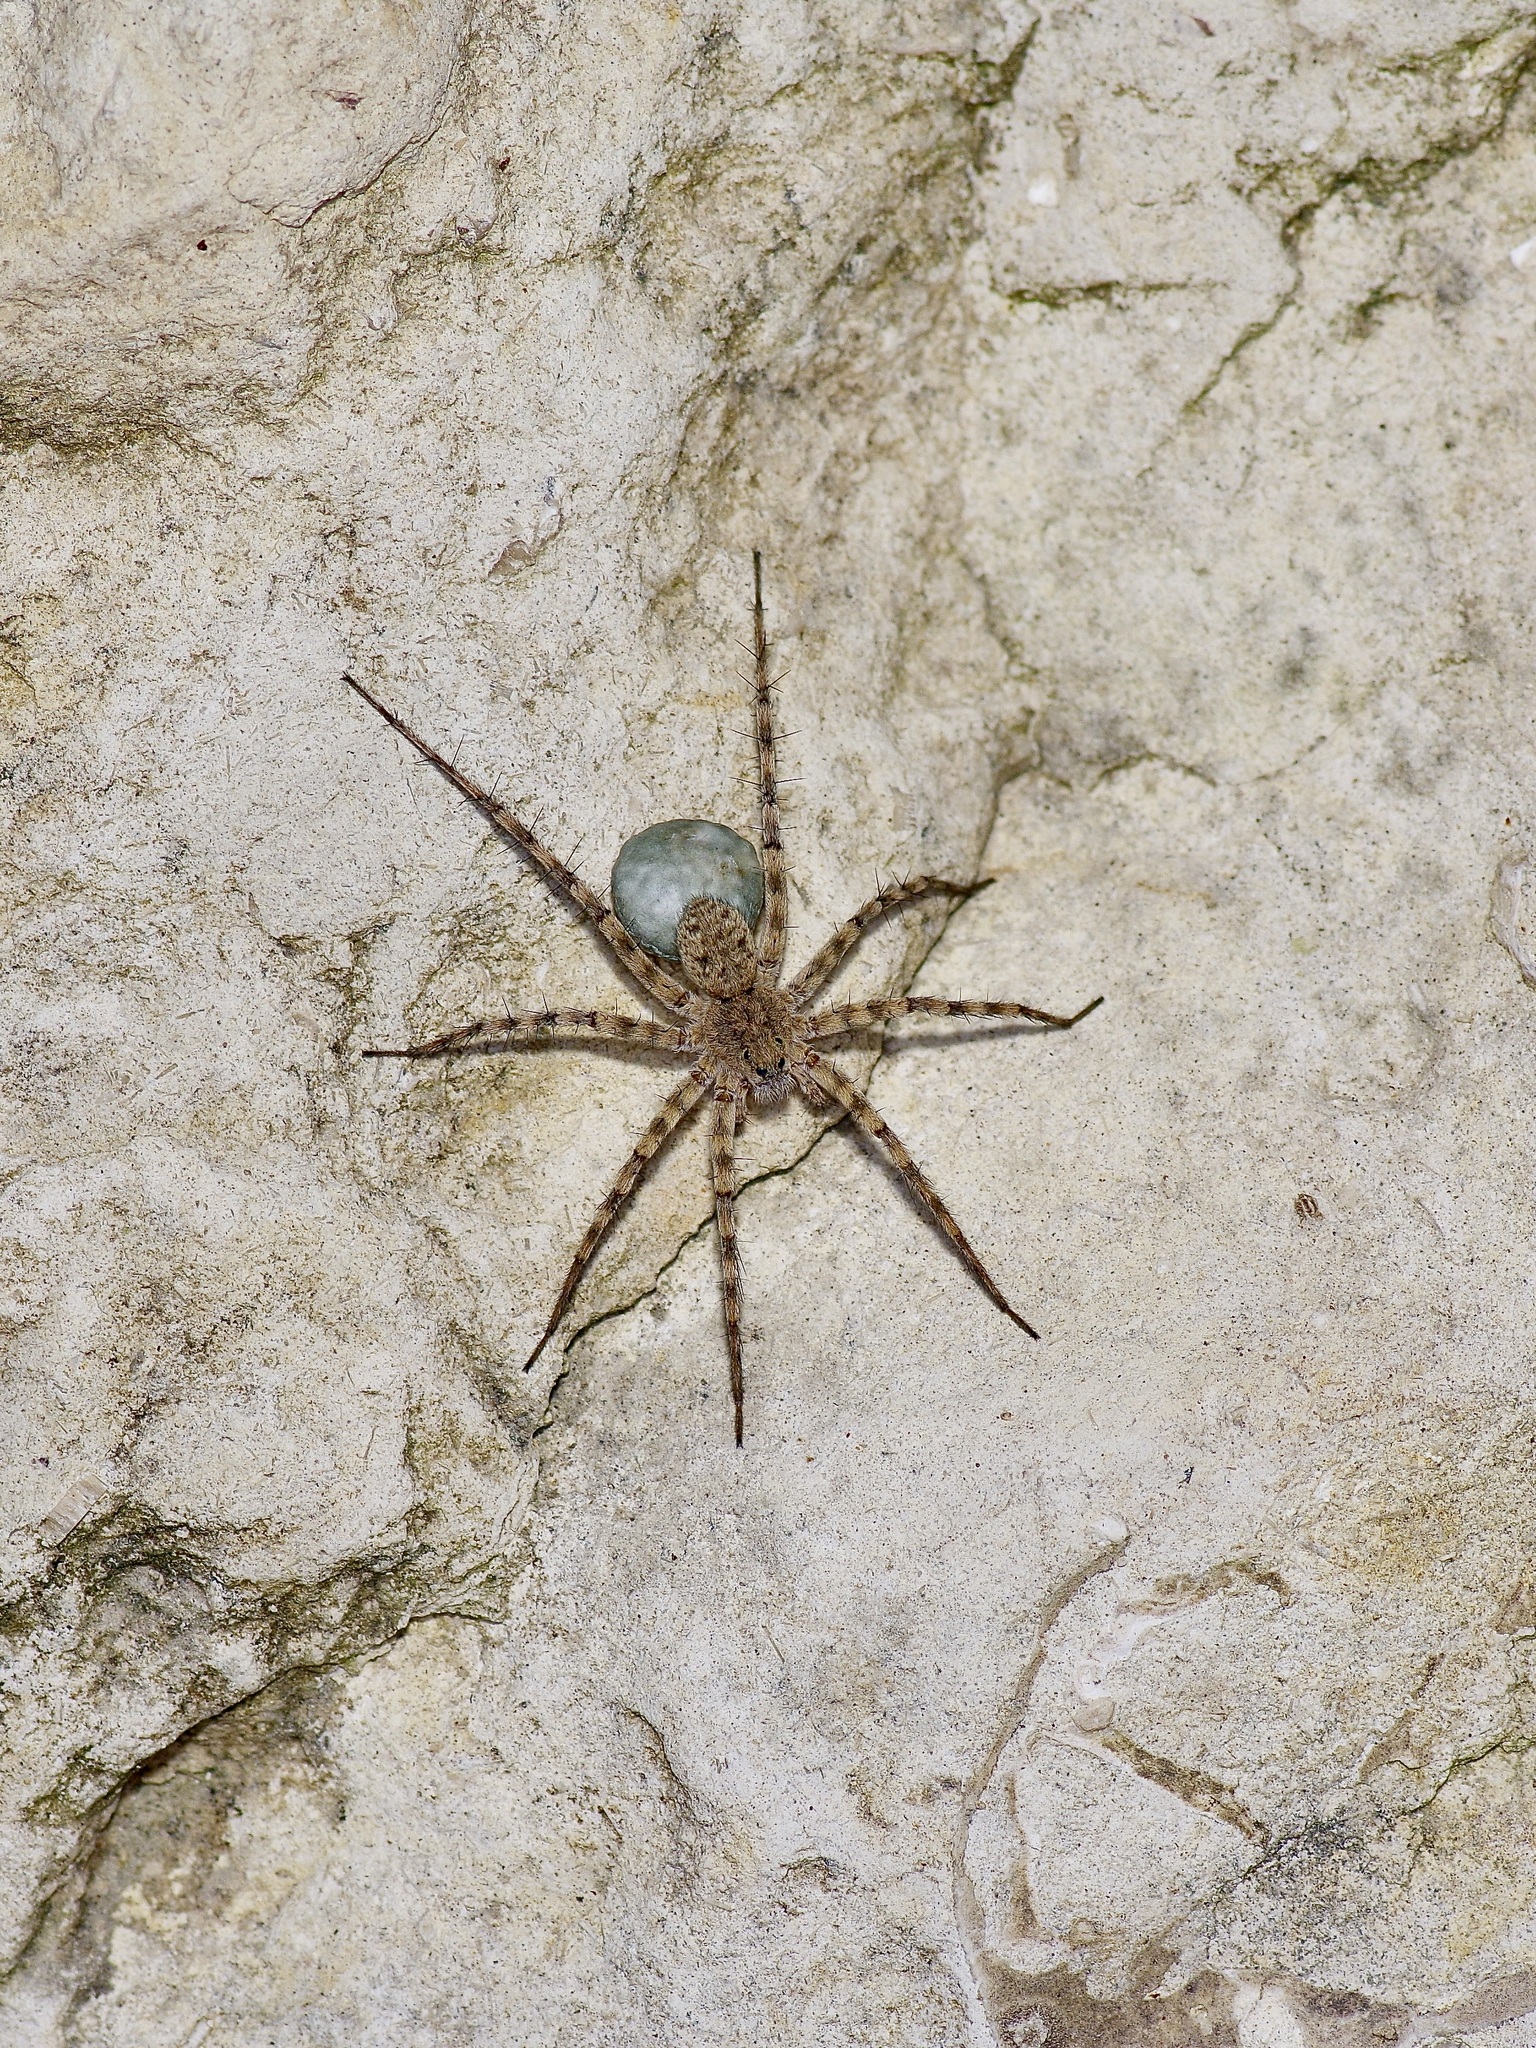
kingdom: Animalia
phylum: Arthropoda
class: Arachnida
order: Araneae
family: Lycosidae
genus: Pardosa
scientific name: Pardosa mercurialis
